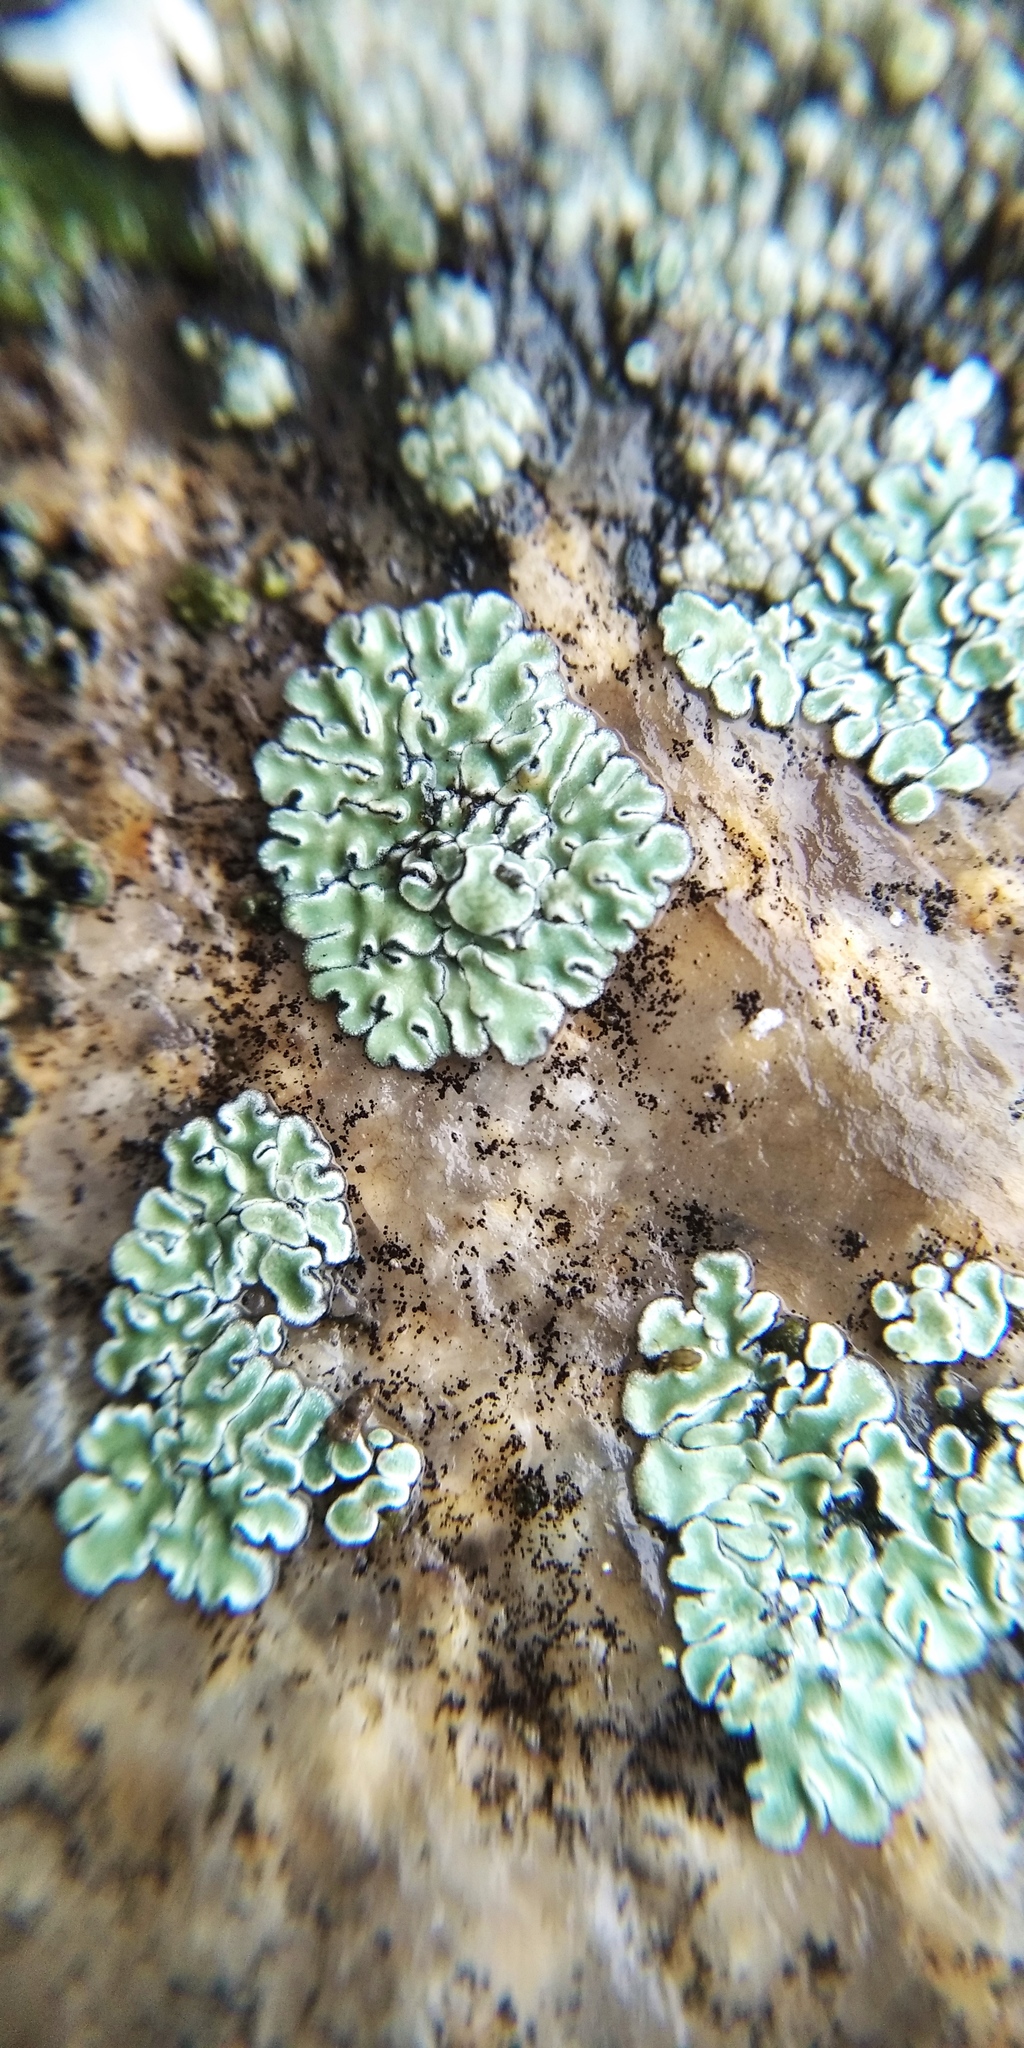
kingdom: Fungi
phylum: Ascomycota
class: Lecanoromycetes
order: Lecanorales
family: Lecanoraceae
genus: Protoparmeliopsis
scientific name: Protoparmeliopsis muralis
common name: Stonewall rim lichen
